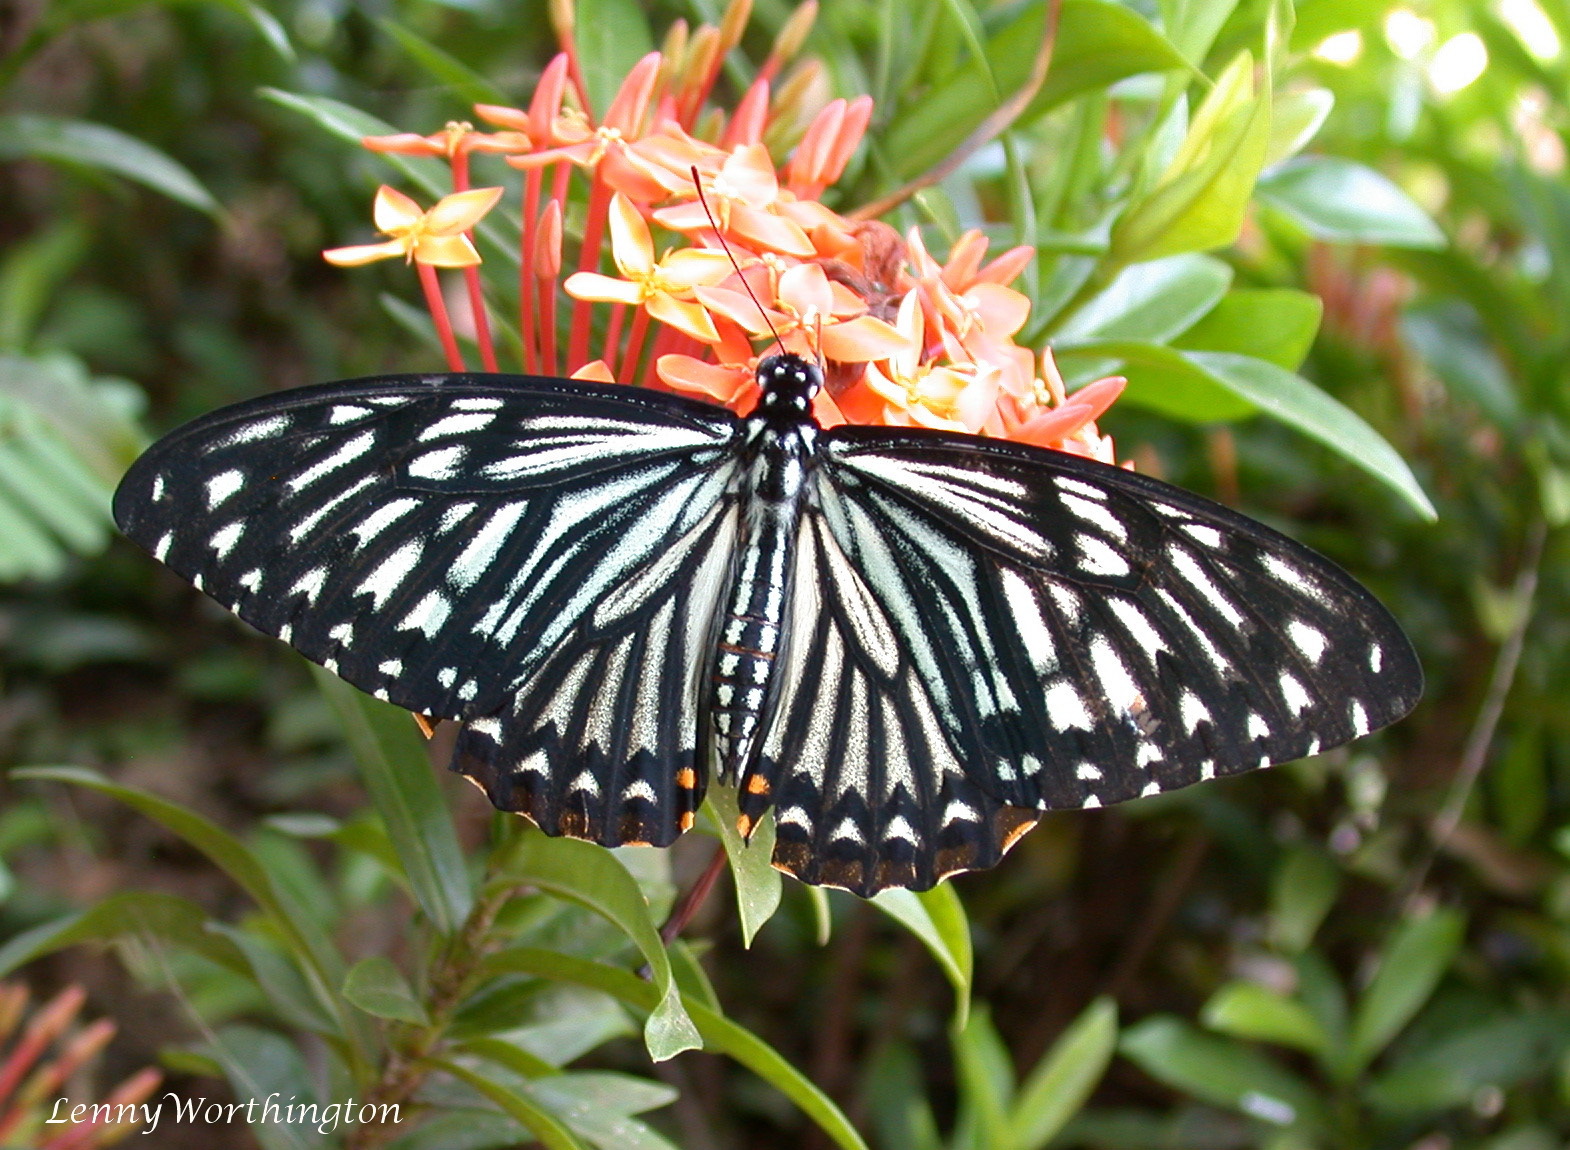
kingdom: Animalia
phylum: Arthropoda
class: Insecta
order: Lepidoptera
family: Papilionidae
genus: Chilasa
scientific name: Chilasa clytia
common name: Common mime
